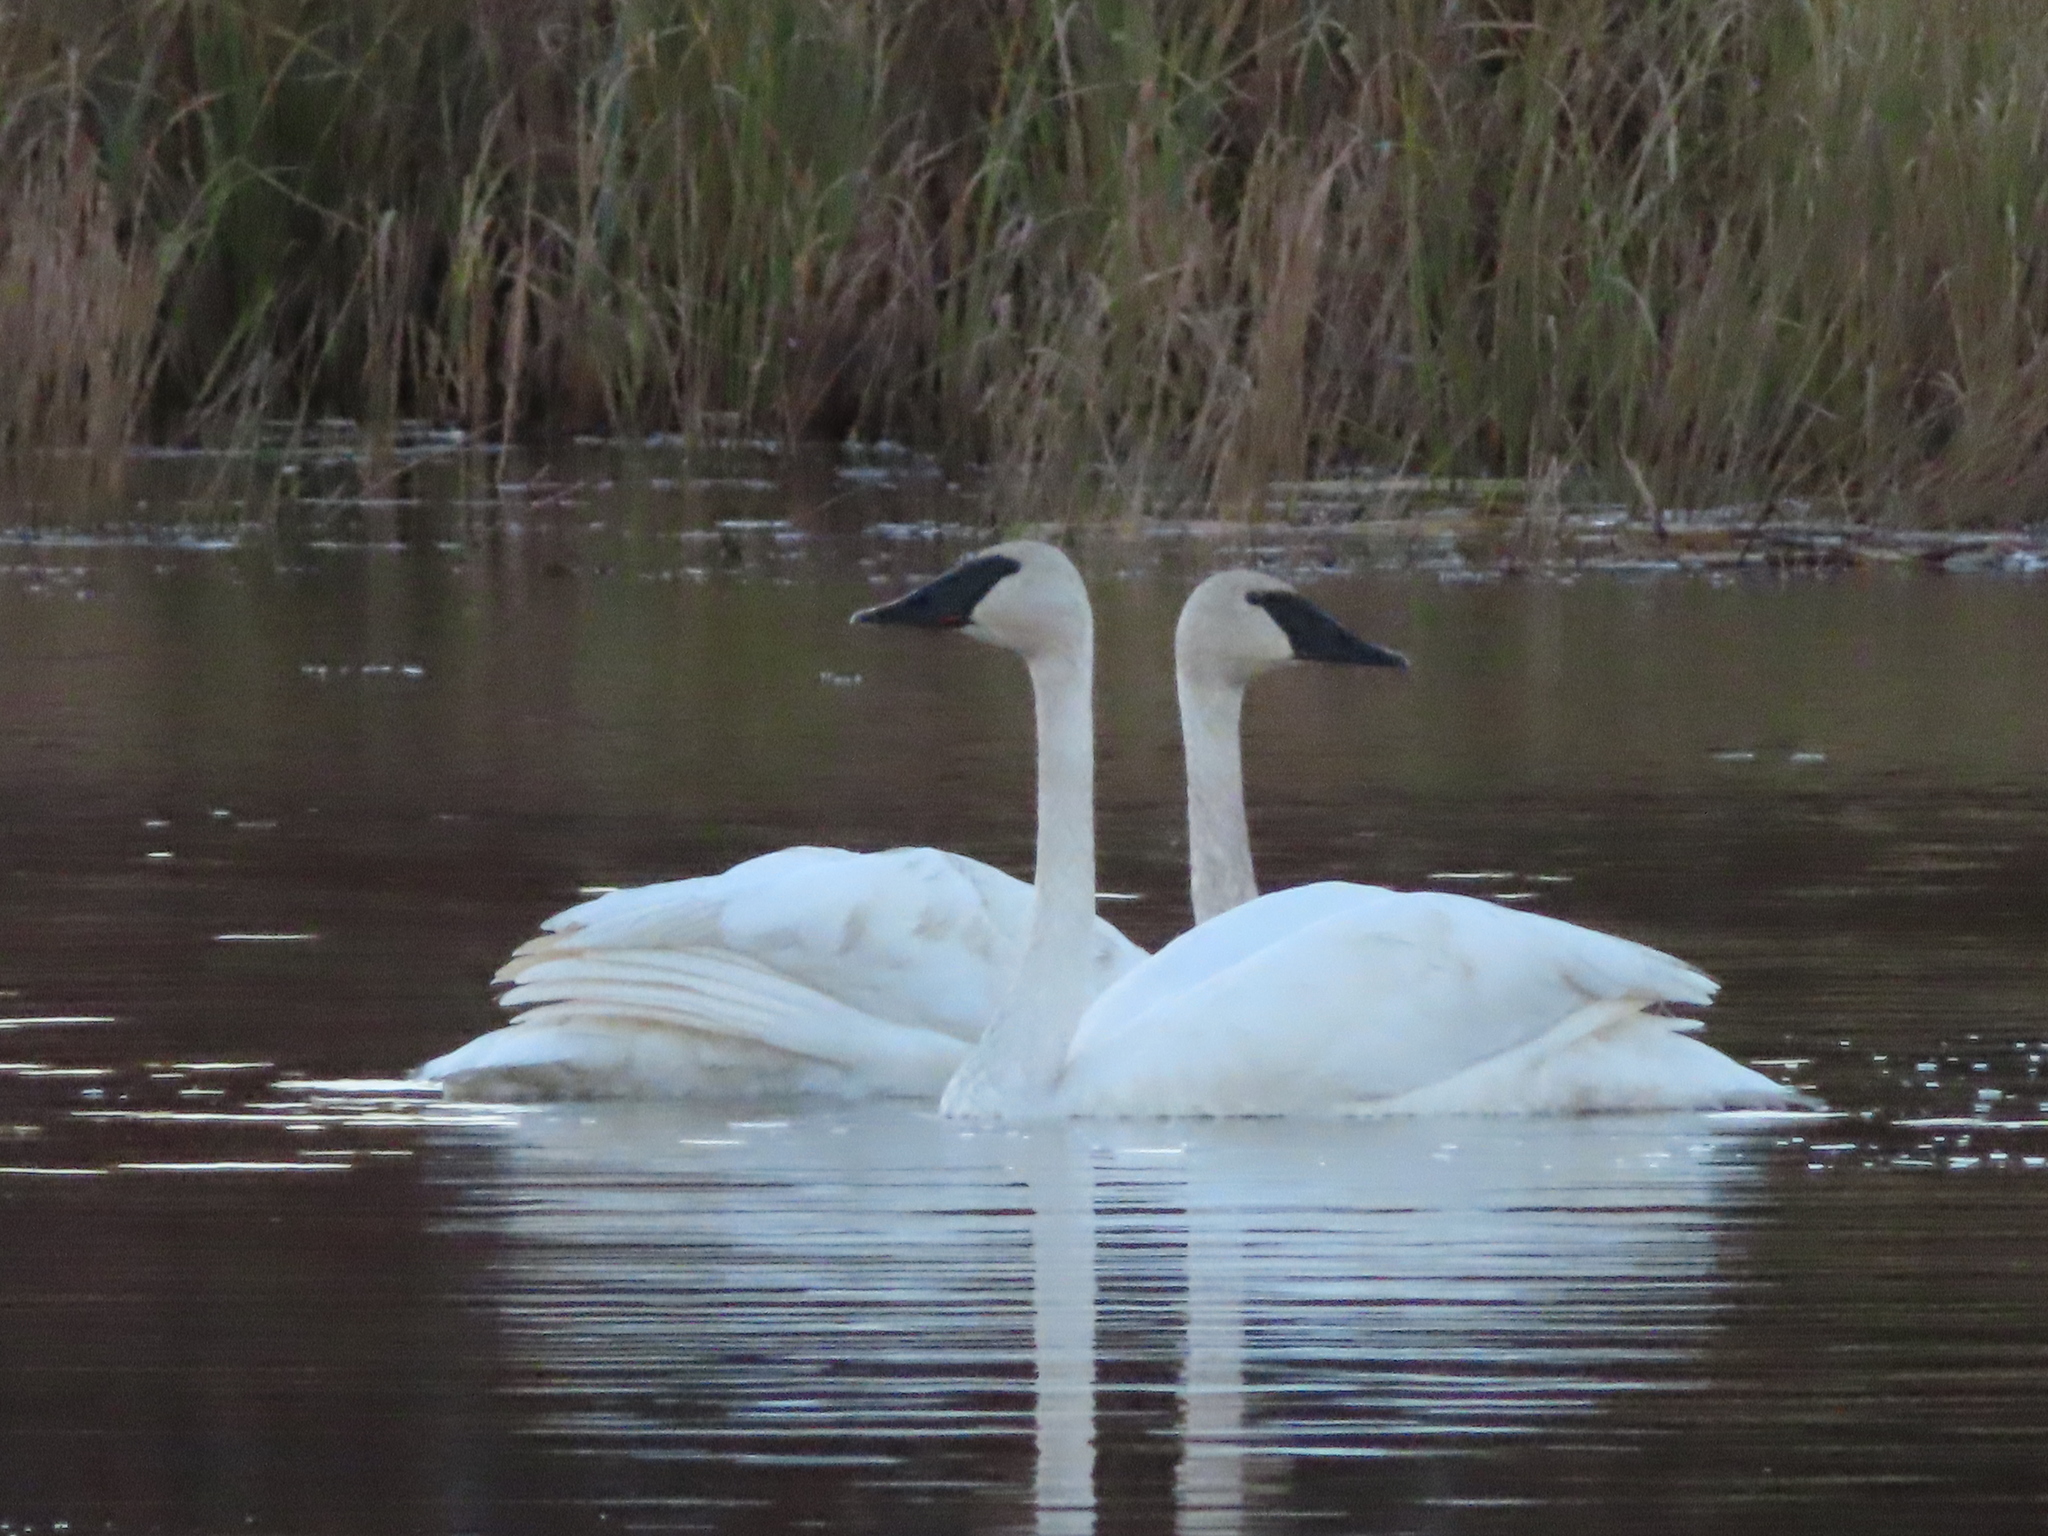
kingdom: Animalia
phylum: Chordata
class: Aves
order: Anseriformes
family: Anatidae
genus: Cygnus
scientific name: Cygnus buccinator
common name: Trumpeter swan
